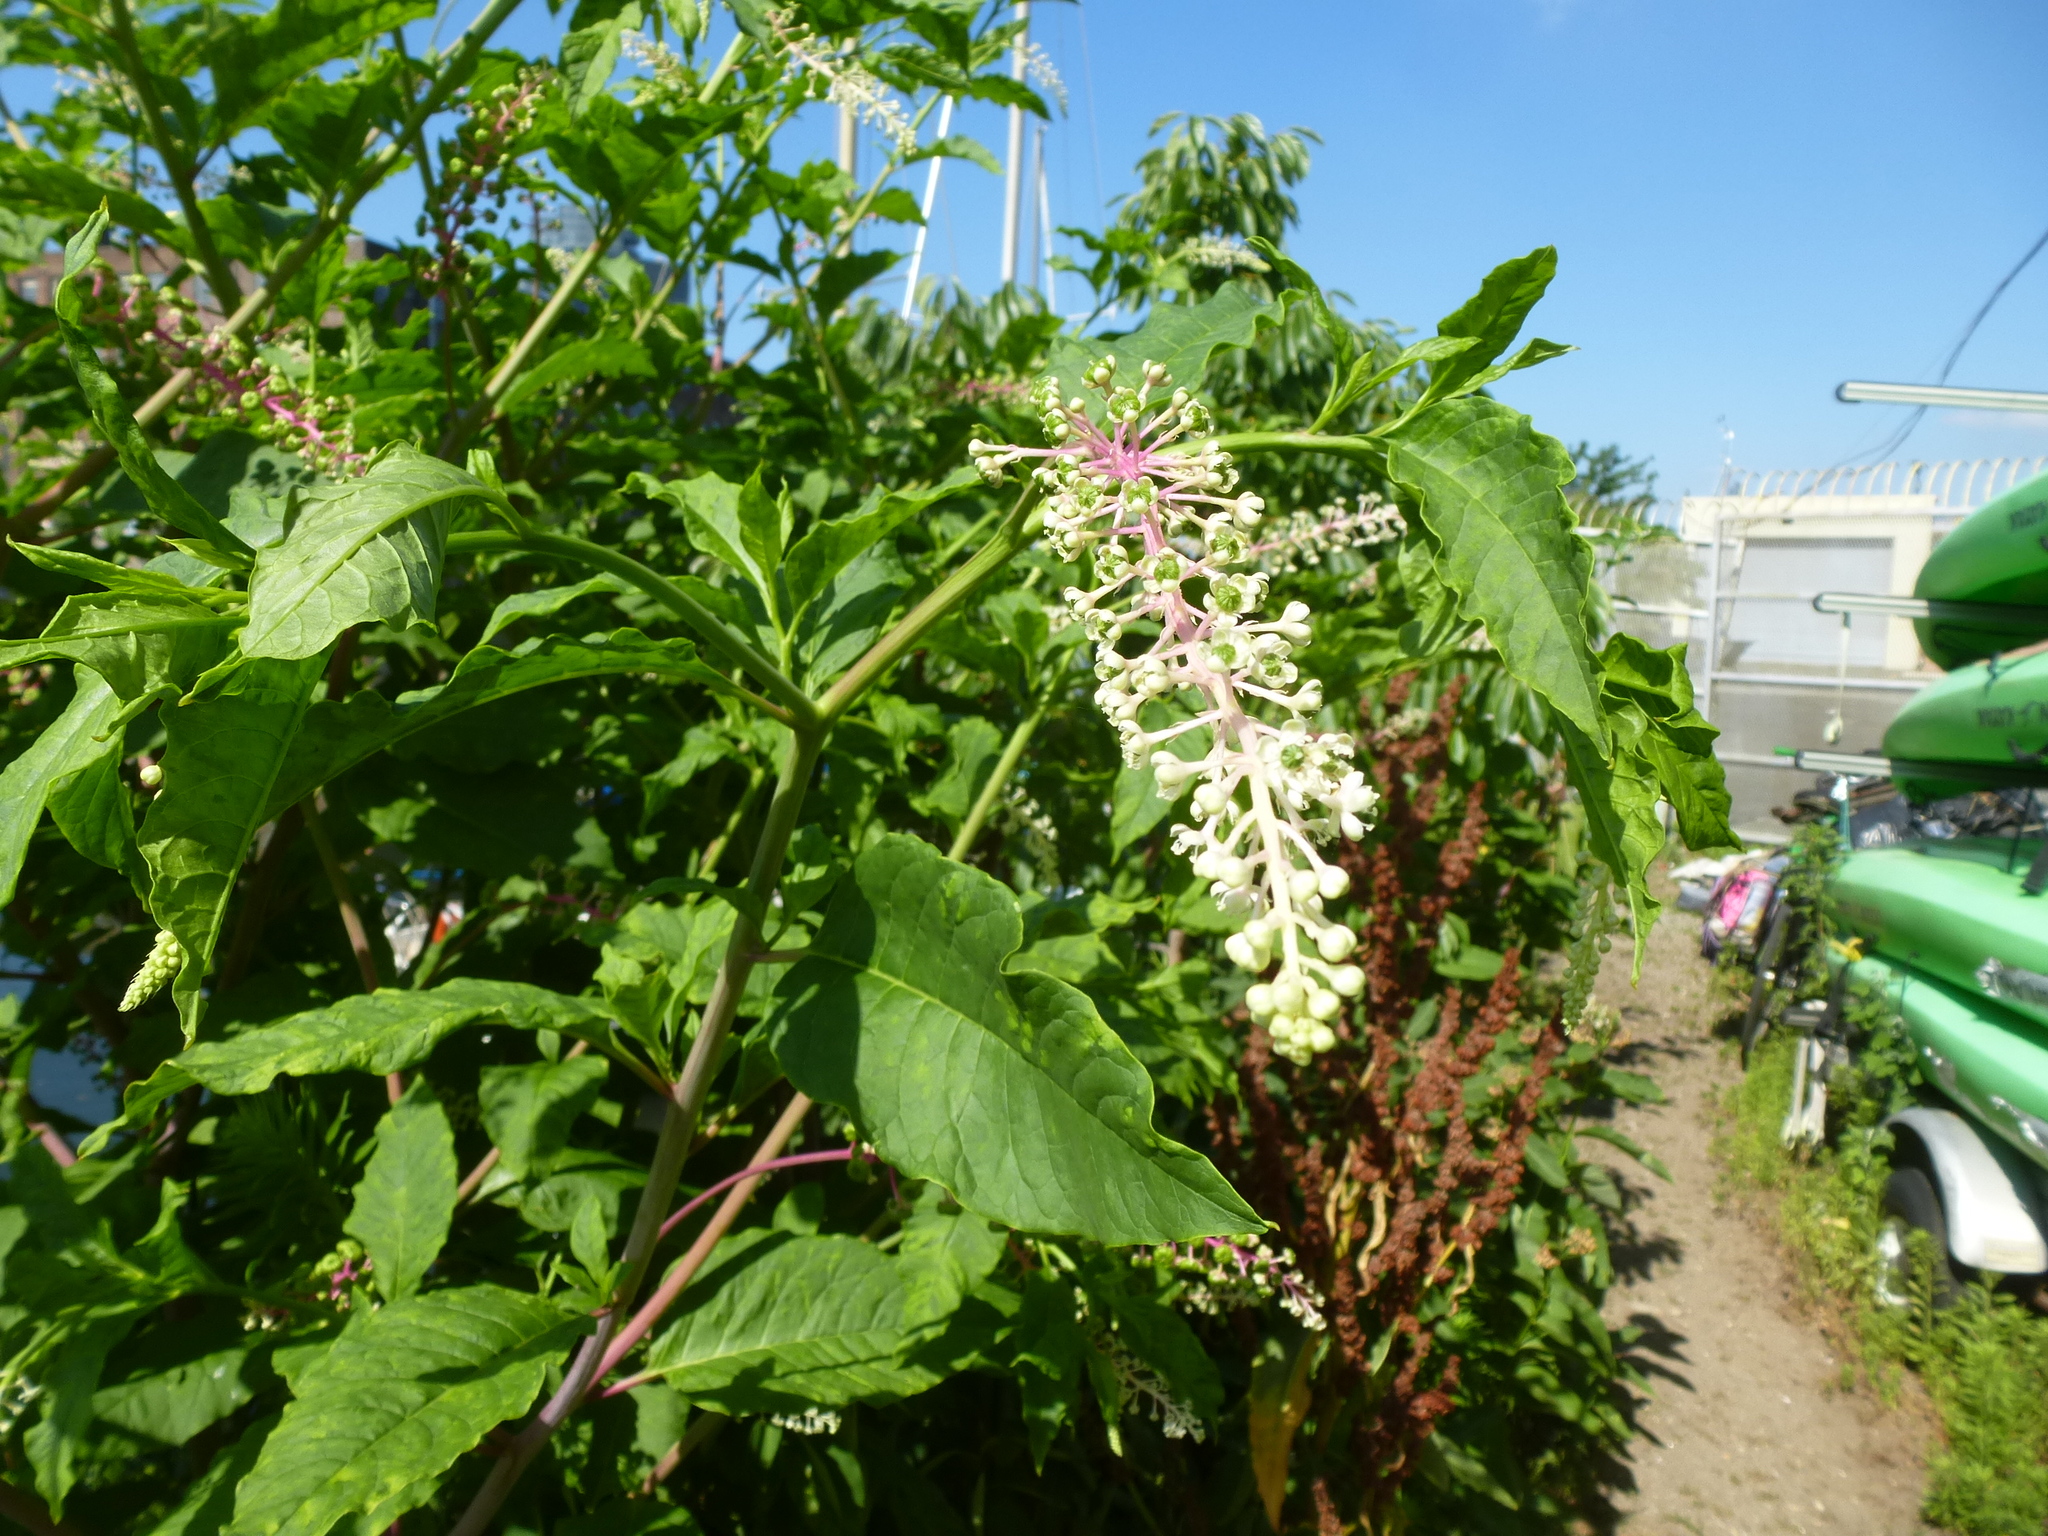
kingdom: Plantae
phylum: Tracheophyta
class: Magnoliopsida
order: Caryophyllales
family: Phytolaccaceae
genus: Phytolacca
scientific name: Phytolacca americana
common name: American pokeweed
